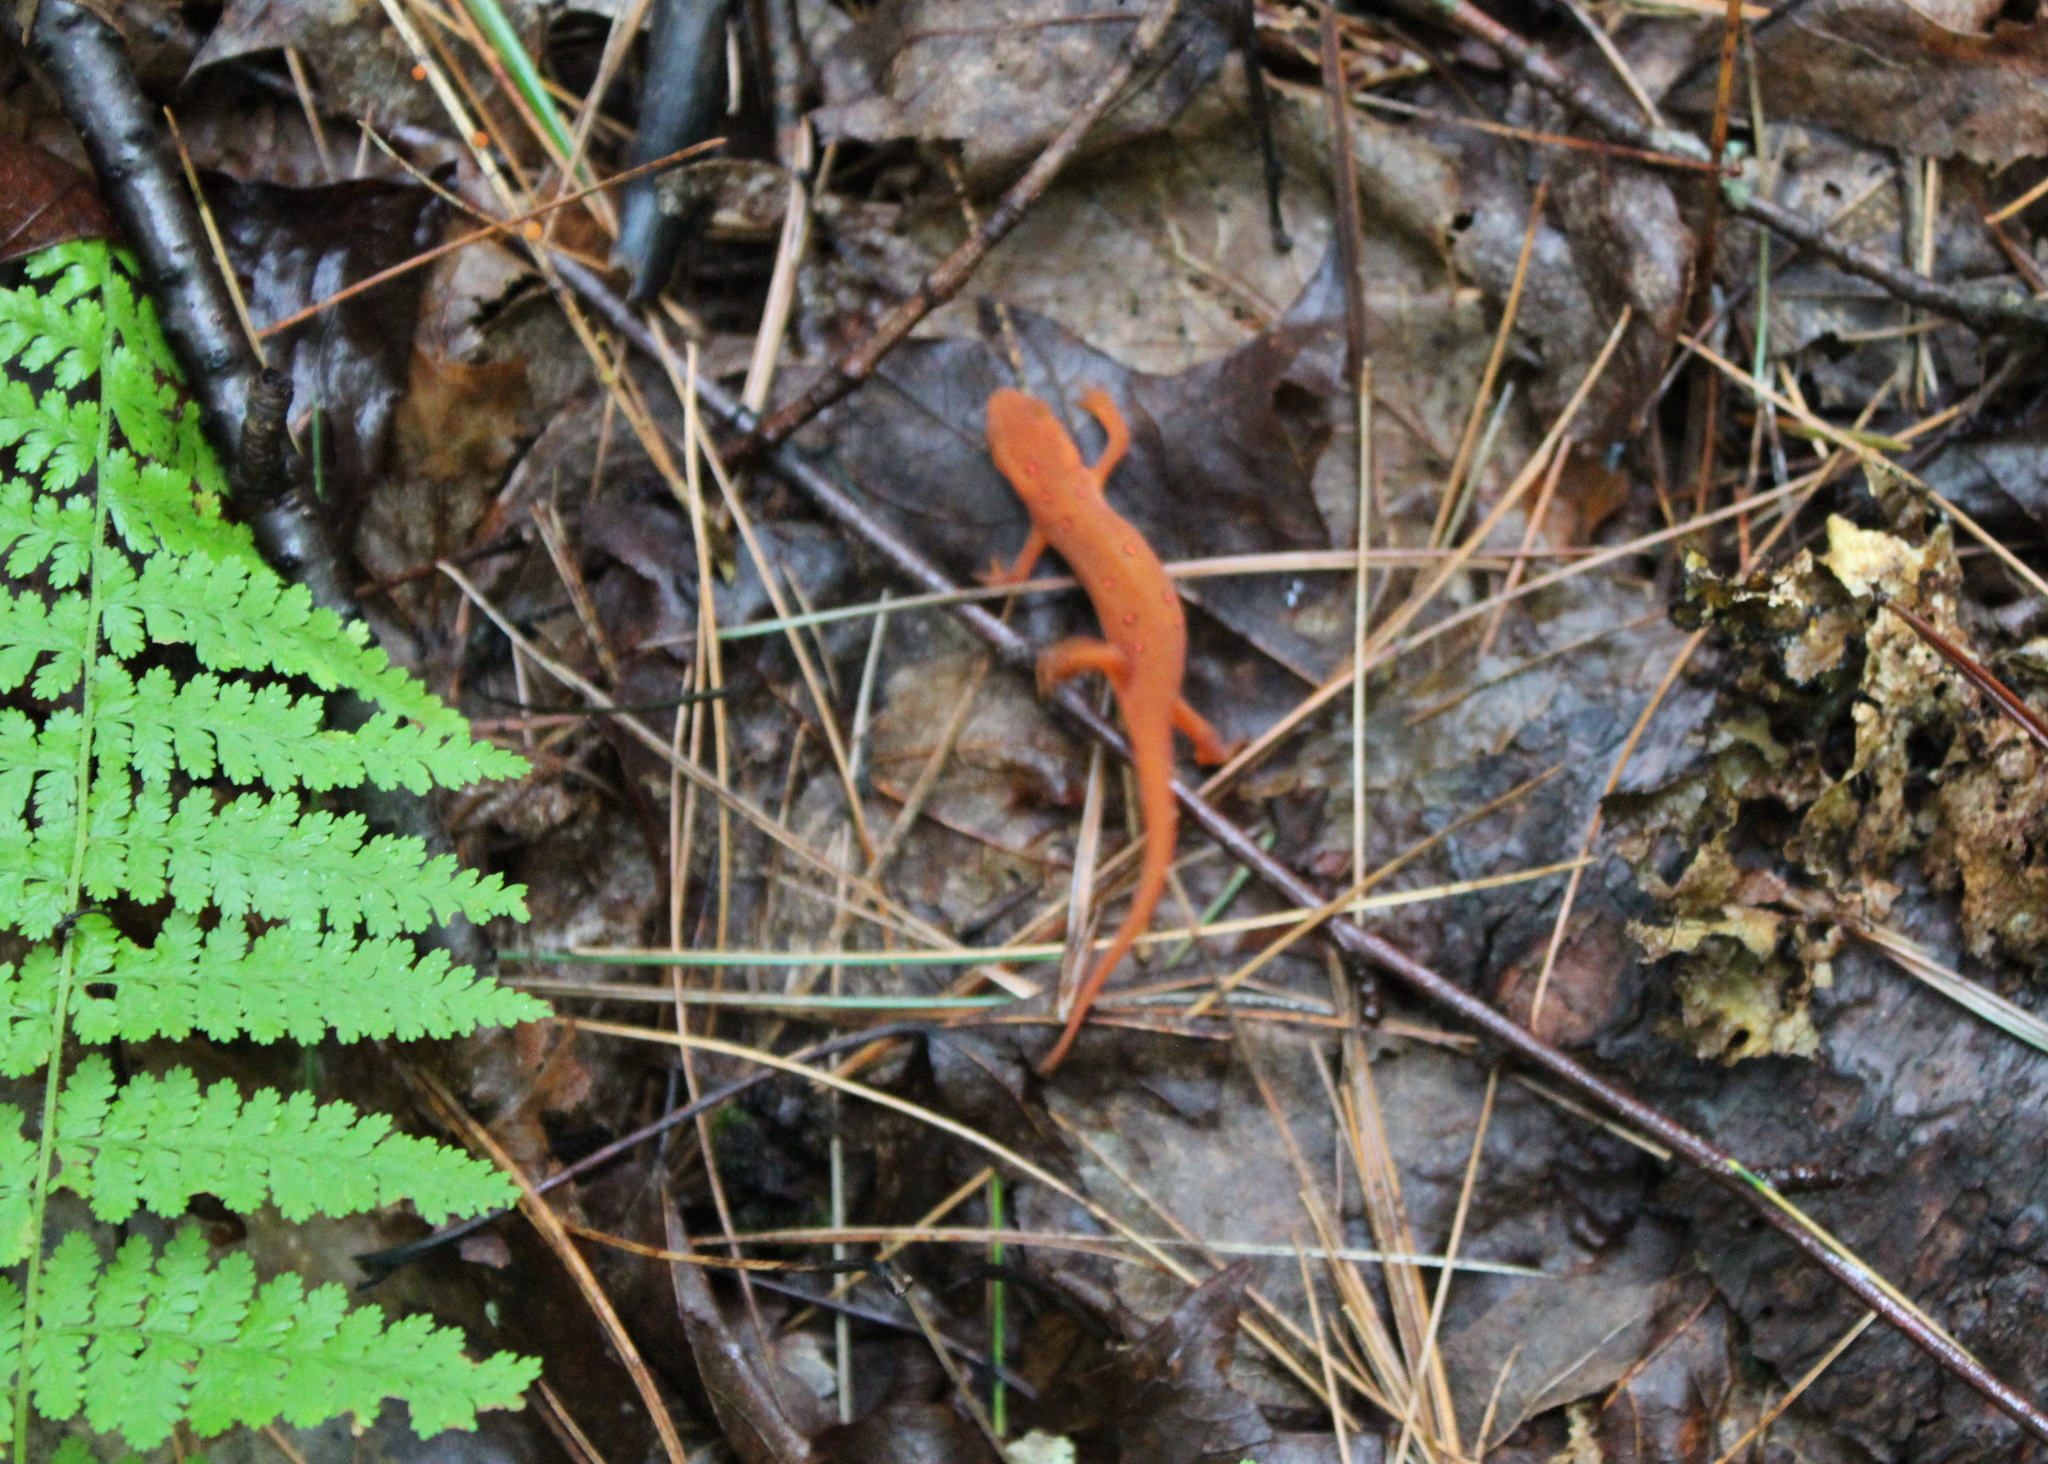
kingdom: Animalia
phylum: Chordata
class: Amphibia
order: Caudata
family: Salamandridae
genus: Notophthalmus
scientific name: Notophthalmus viridescens
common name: Eastern newt
